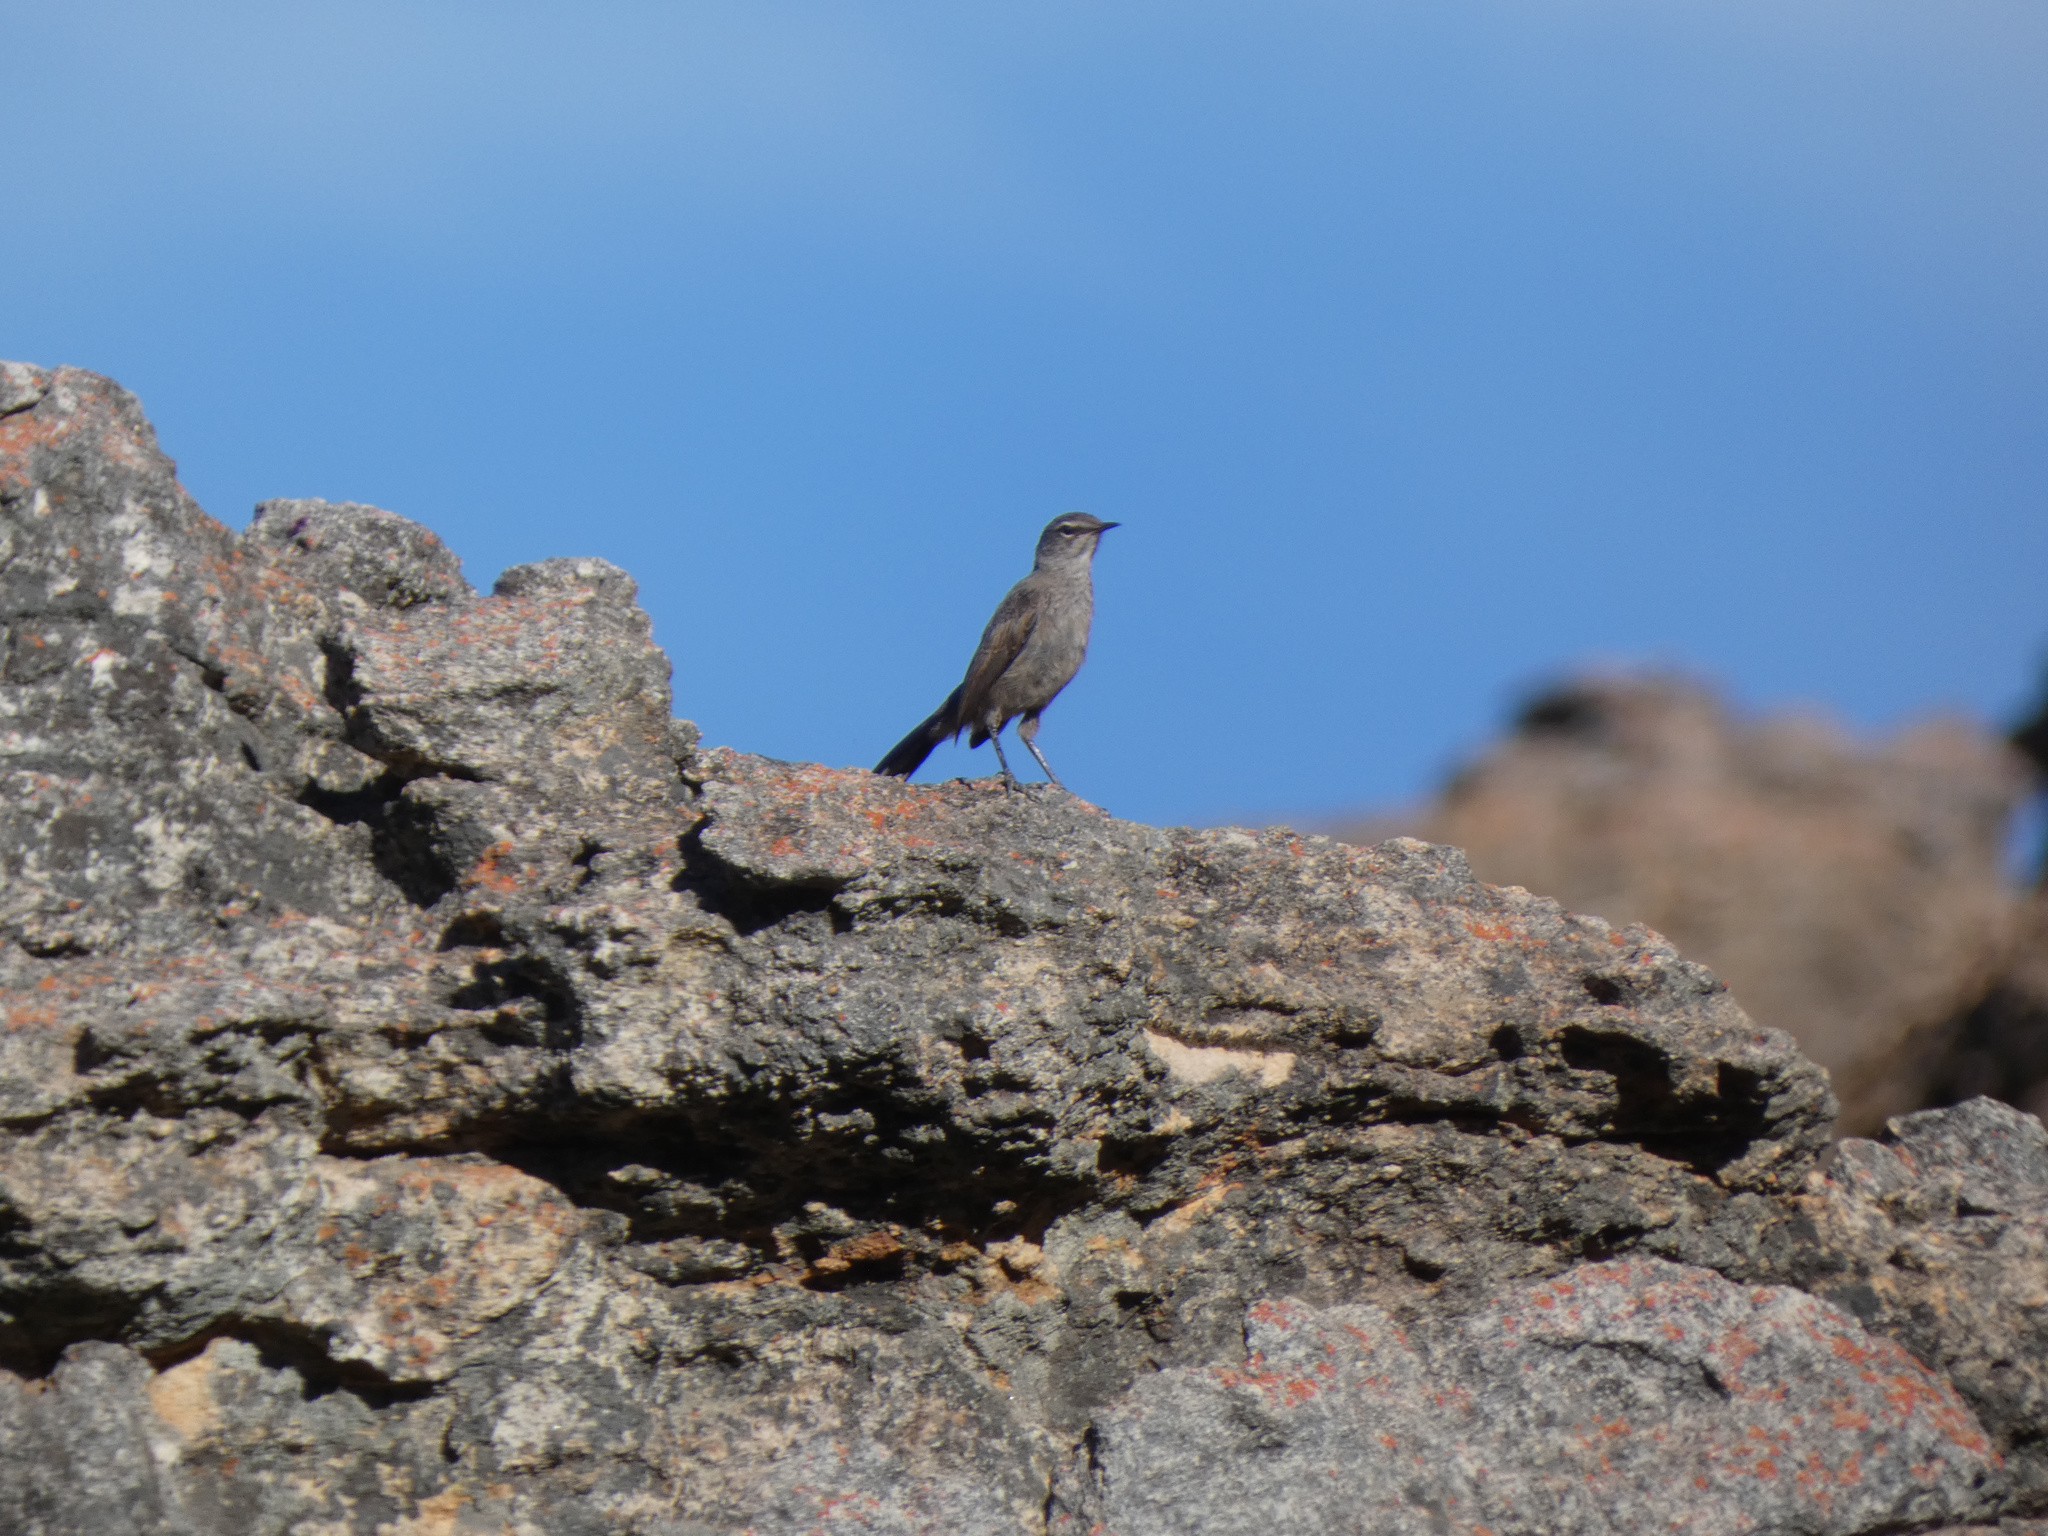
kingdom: Animalia
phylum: Chordata
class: Aves
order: Passeriformes
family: Muscicapidae
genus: Erythropygia
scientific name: Erythropygia coryphoeus
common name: Karoo scrub robin
